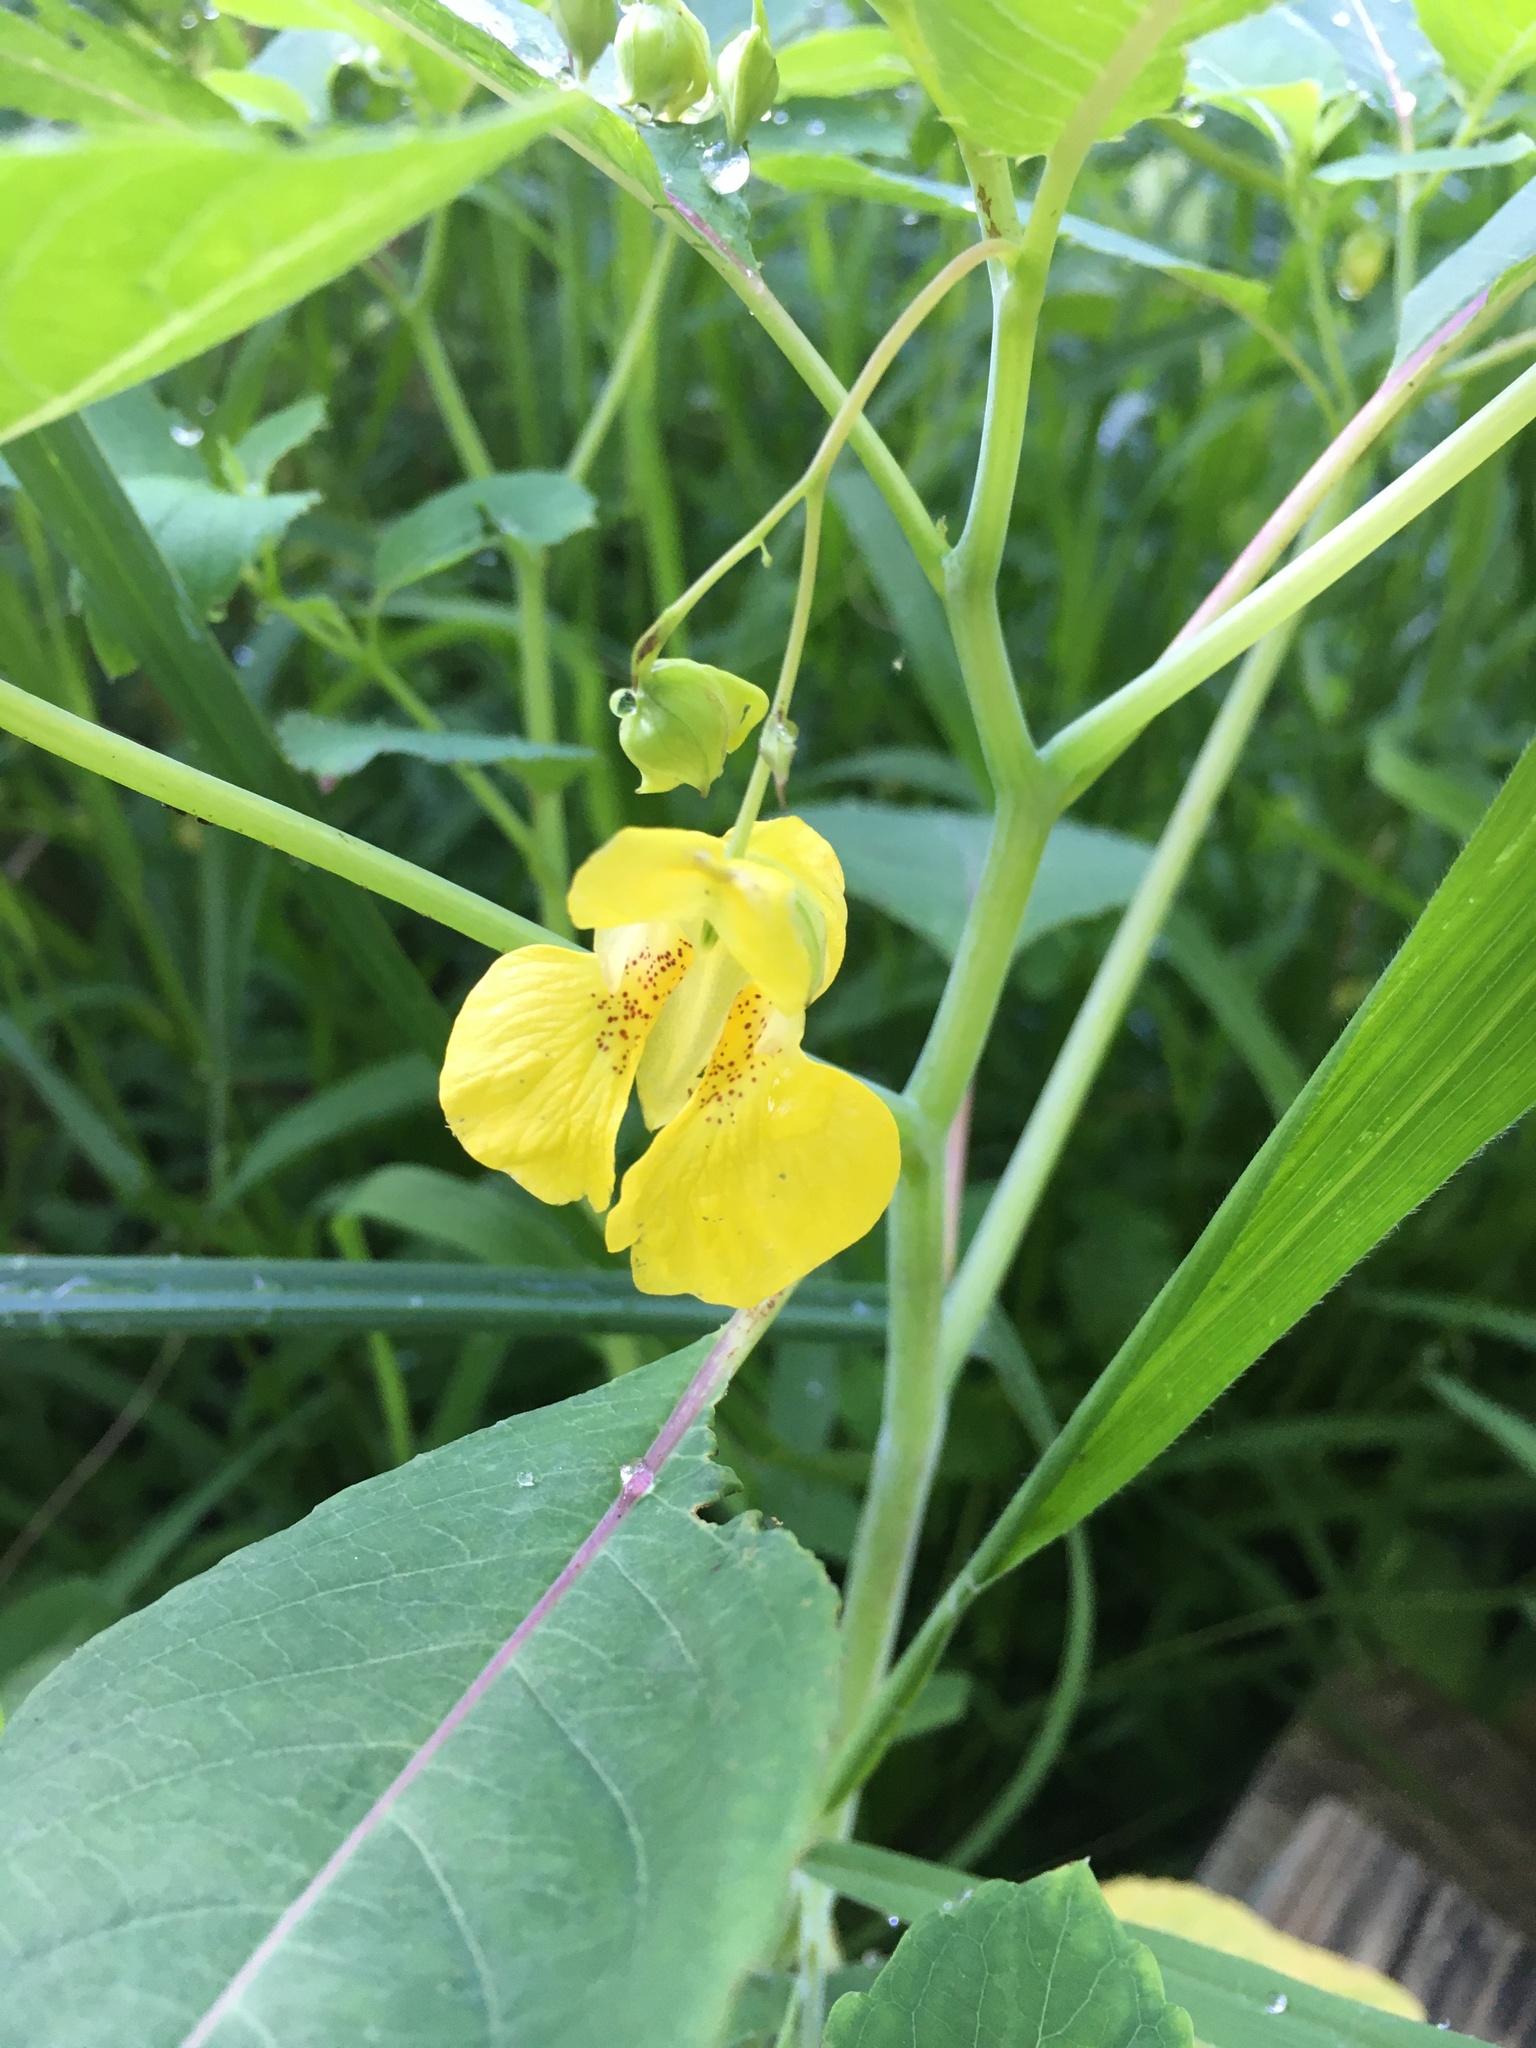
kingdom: Plantae
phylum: Tracheophyta
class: Magnoliopsida
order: Ericales
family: Balsaminaceae
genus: Impatiens
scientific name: Impatiens pallida
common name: Pale snapweed
